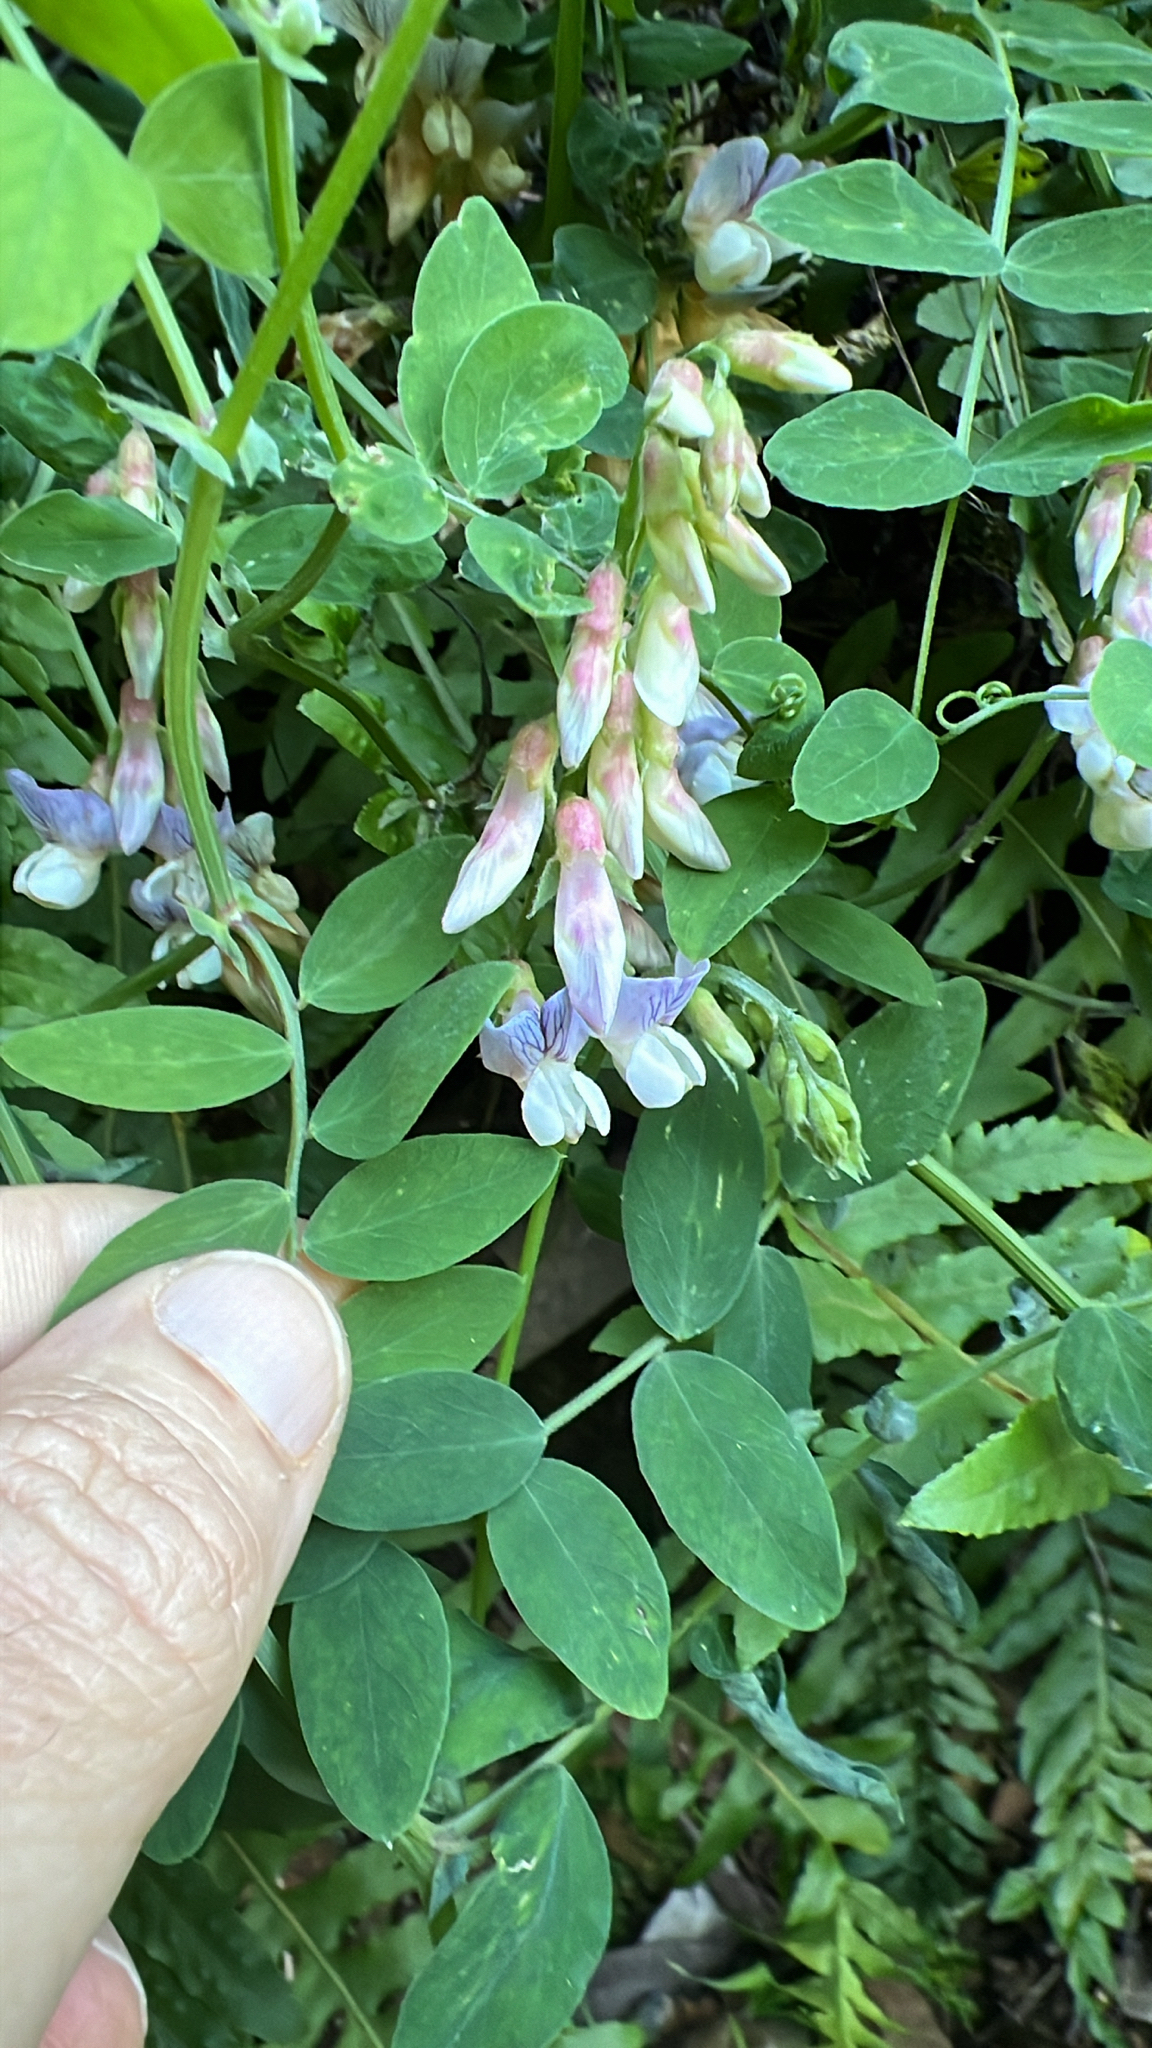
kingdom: Plantae
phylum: Tracheophyta
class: Magnoliopsida
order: Fabales
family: Fabaceae
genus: Lathyrus
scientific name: Lathyrus vestitus
